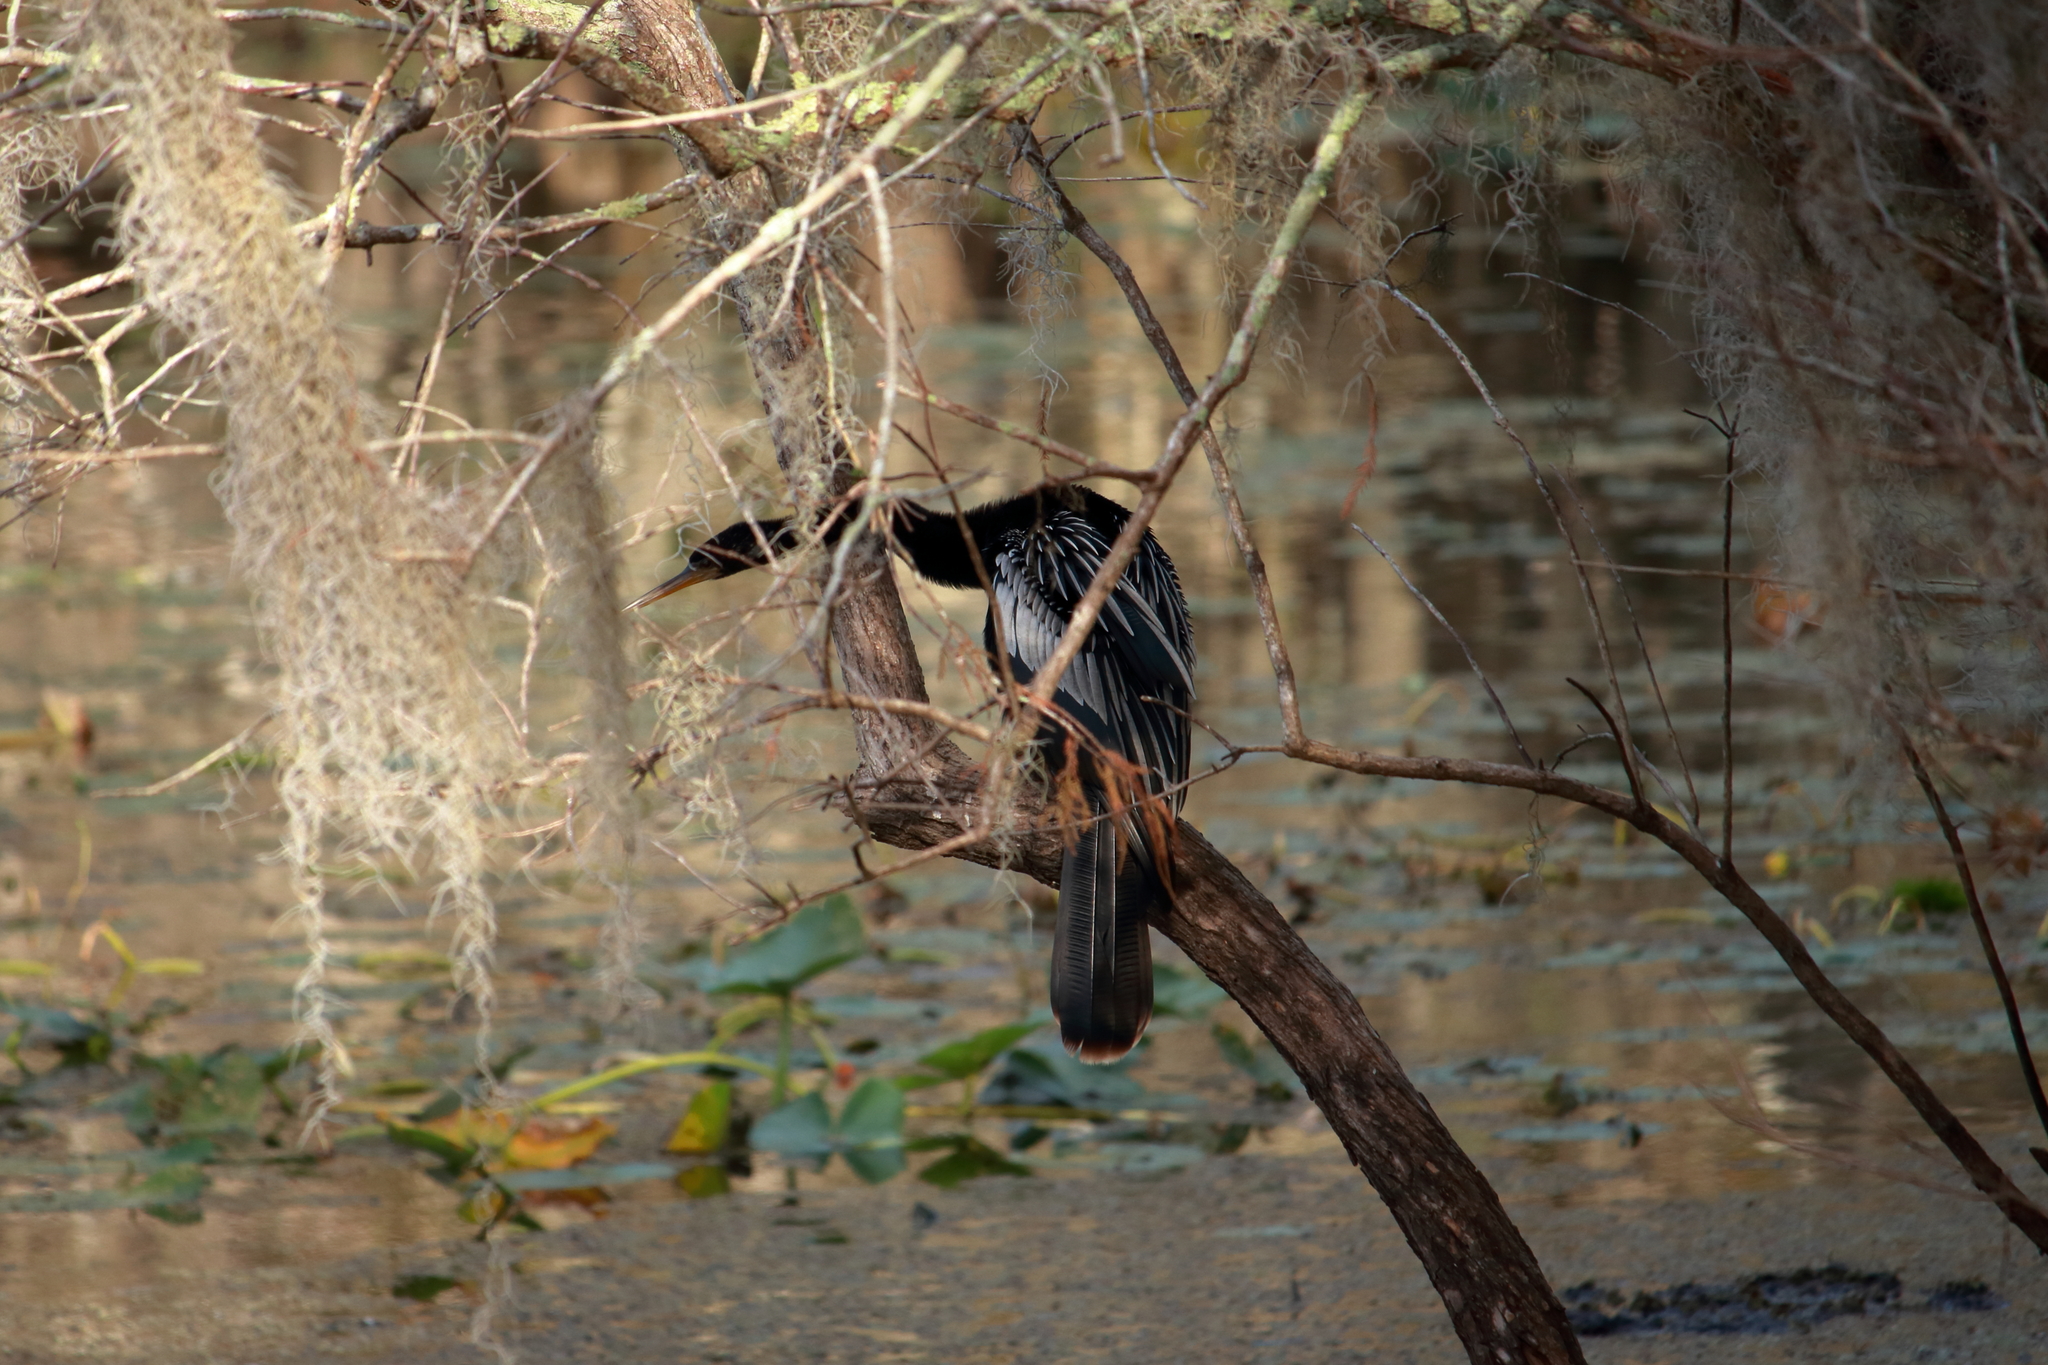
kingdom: Animalia
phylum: Chordata
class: Aves
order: Suliformes
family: Anhingidae
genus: Anhinga
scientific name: Anhinga anhinga
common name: Anhinga
